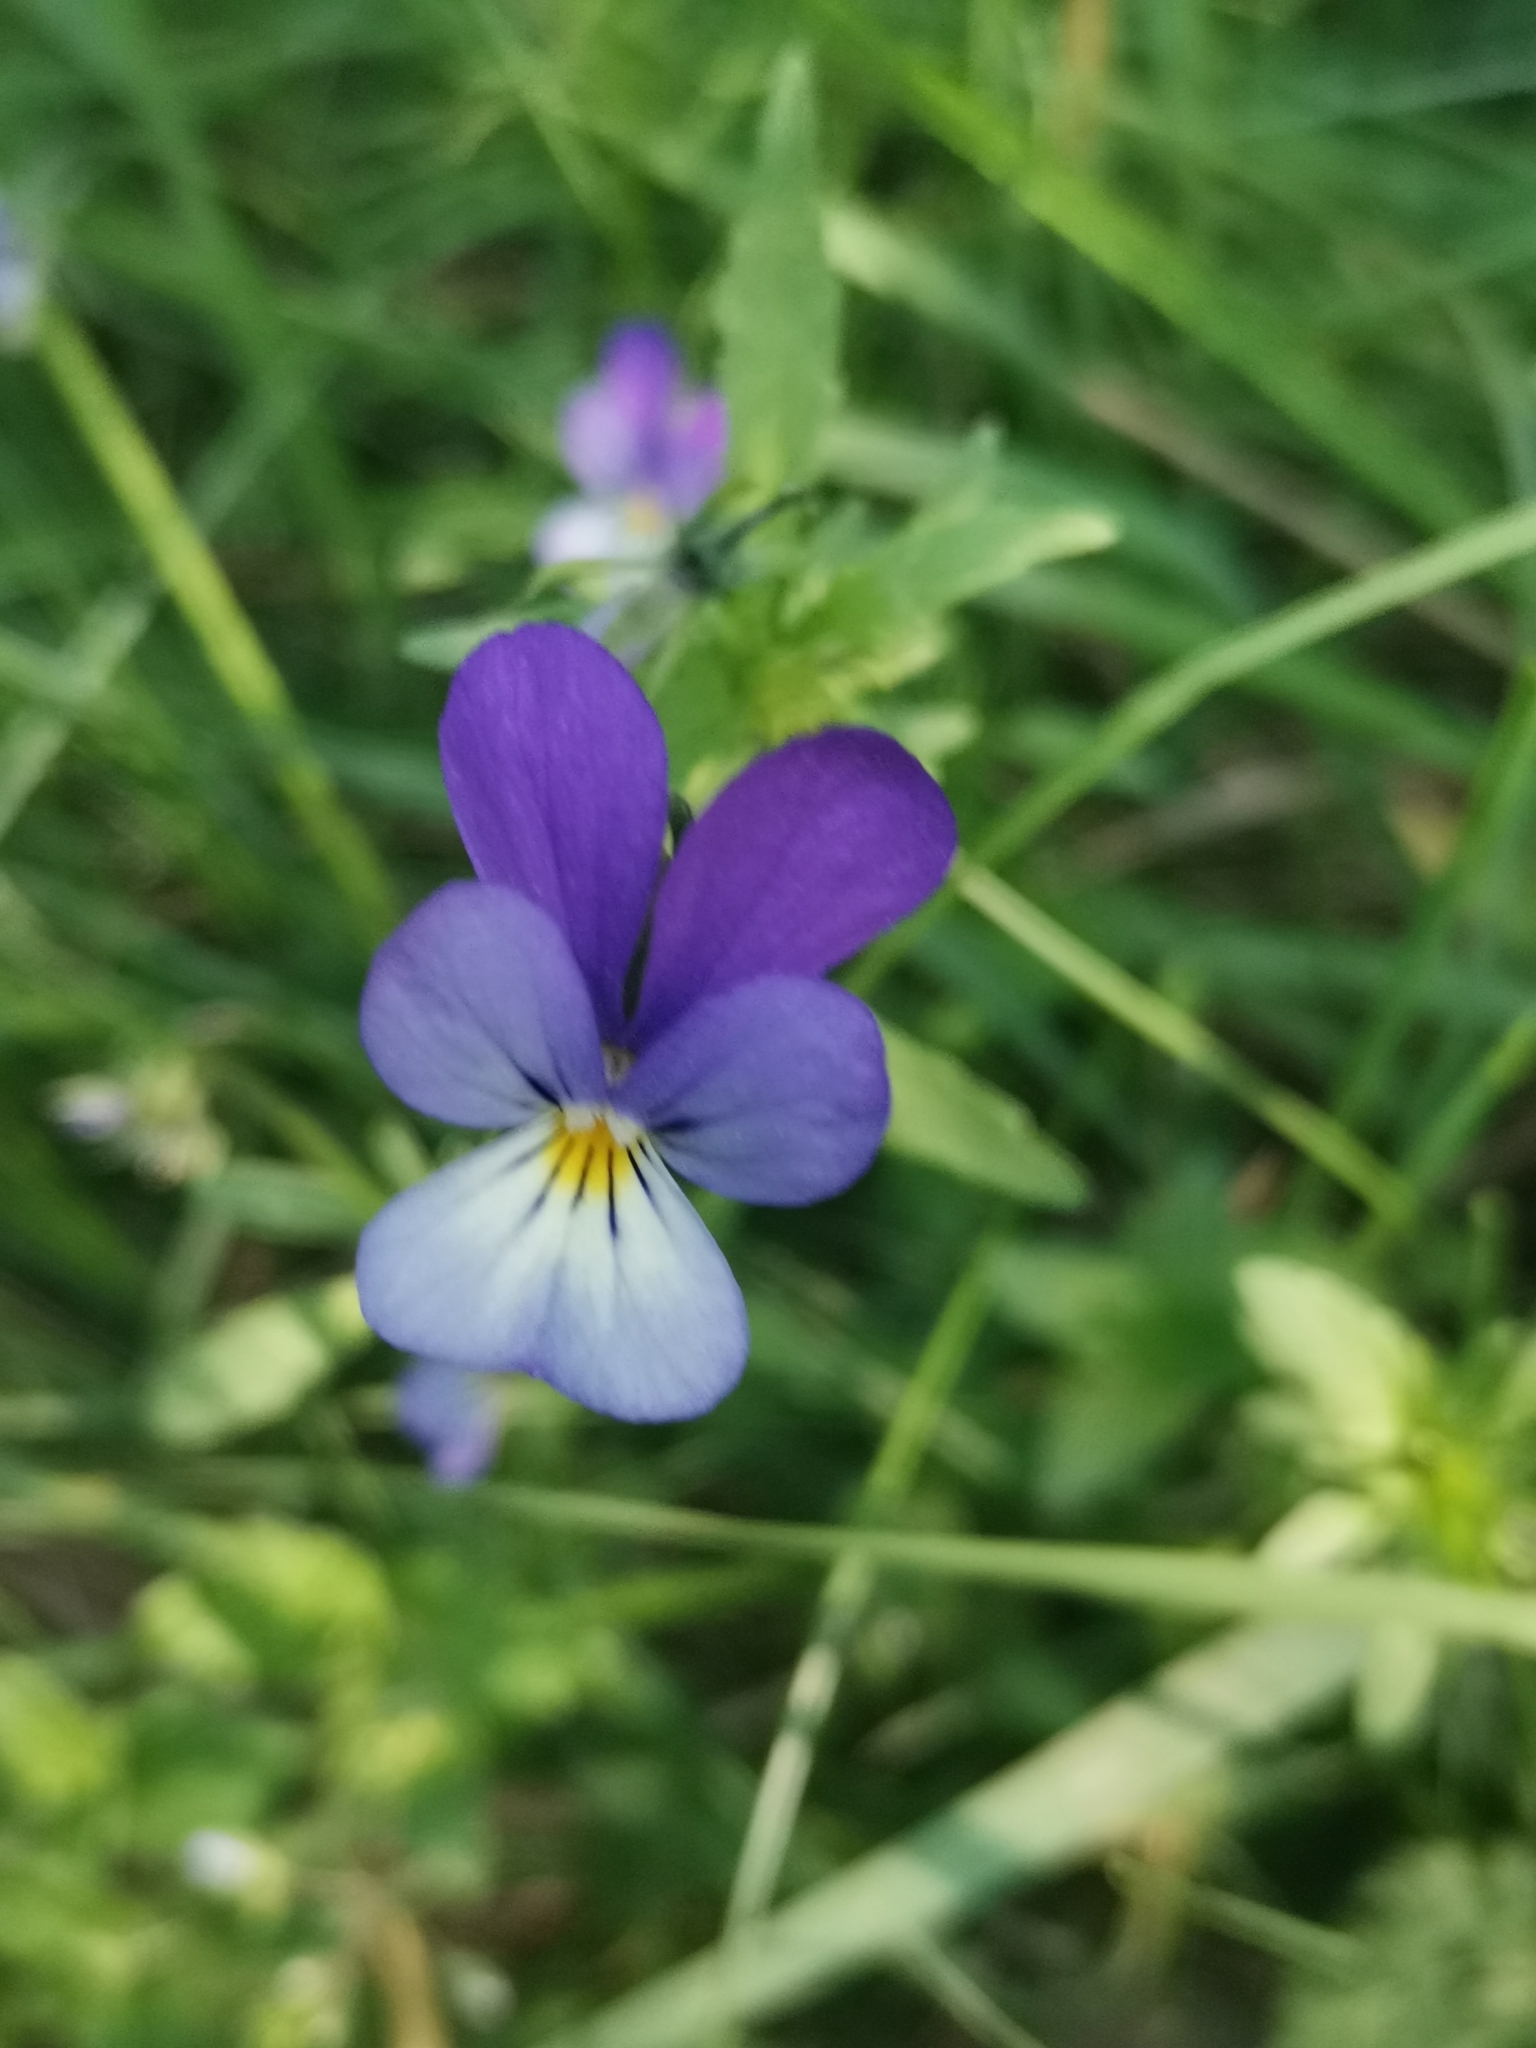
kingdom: Plantae
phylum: Tracheophyta
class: Magnoliopsida
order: Malpighiales
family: Violaceae
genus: Viola
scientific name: Viola tricolor
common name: Pansy
